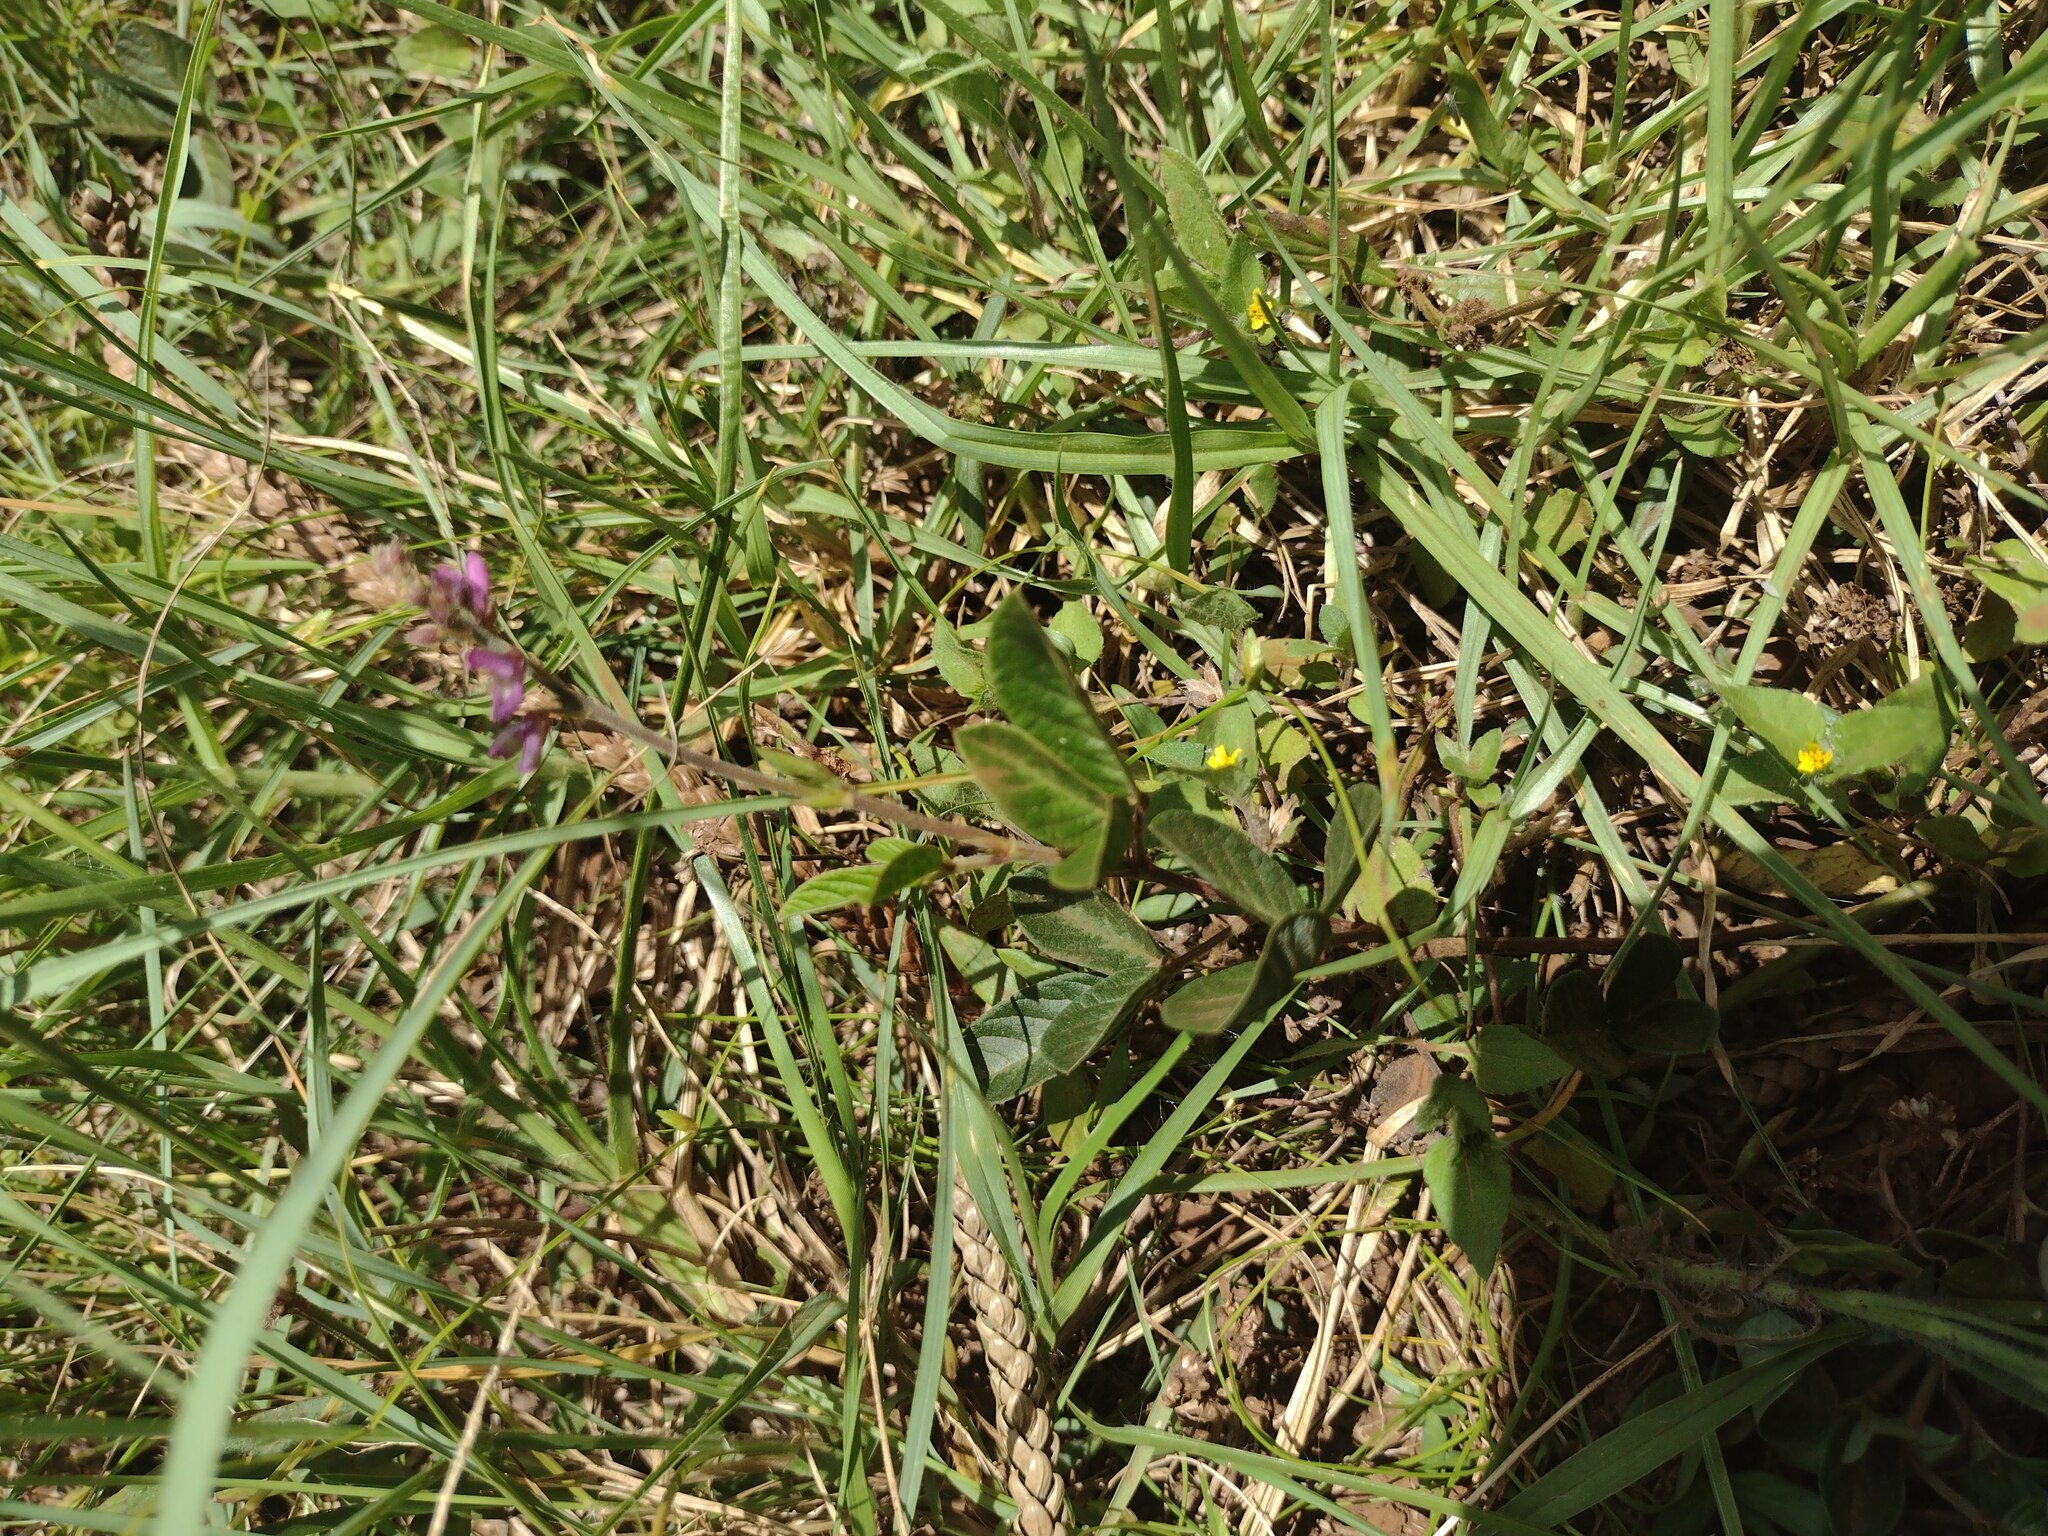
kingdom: Plantae
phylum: Tracheophyta
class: Magnoliopsida
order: Fabales
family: Fabaceae
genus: Desmodium
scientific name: Desmodium incanum
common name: Tickclover
